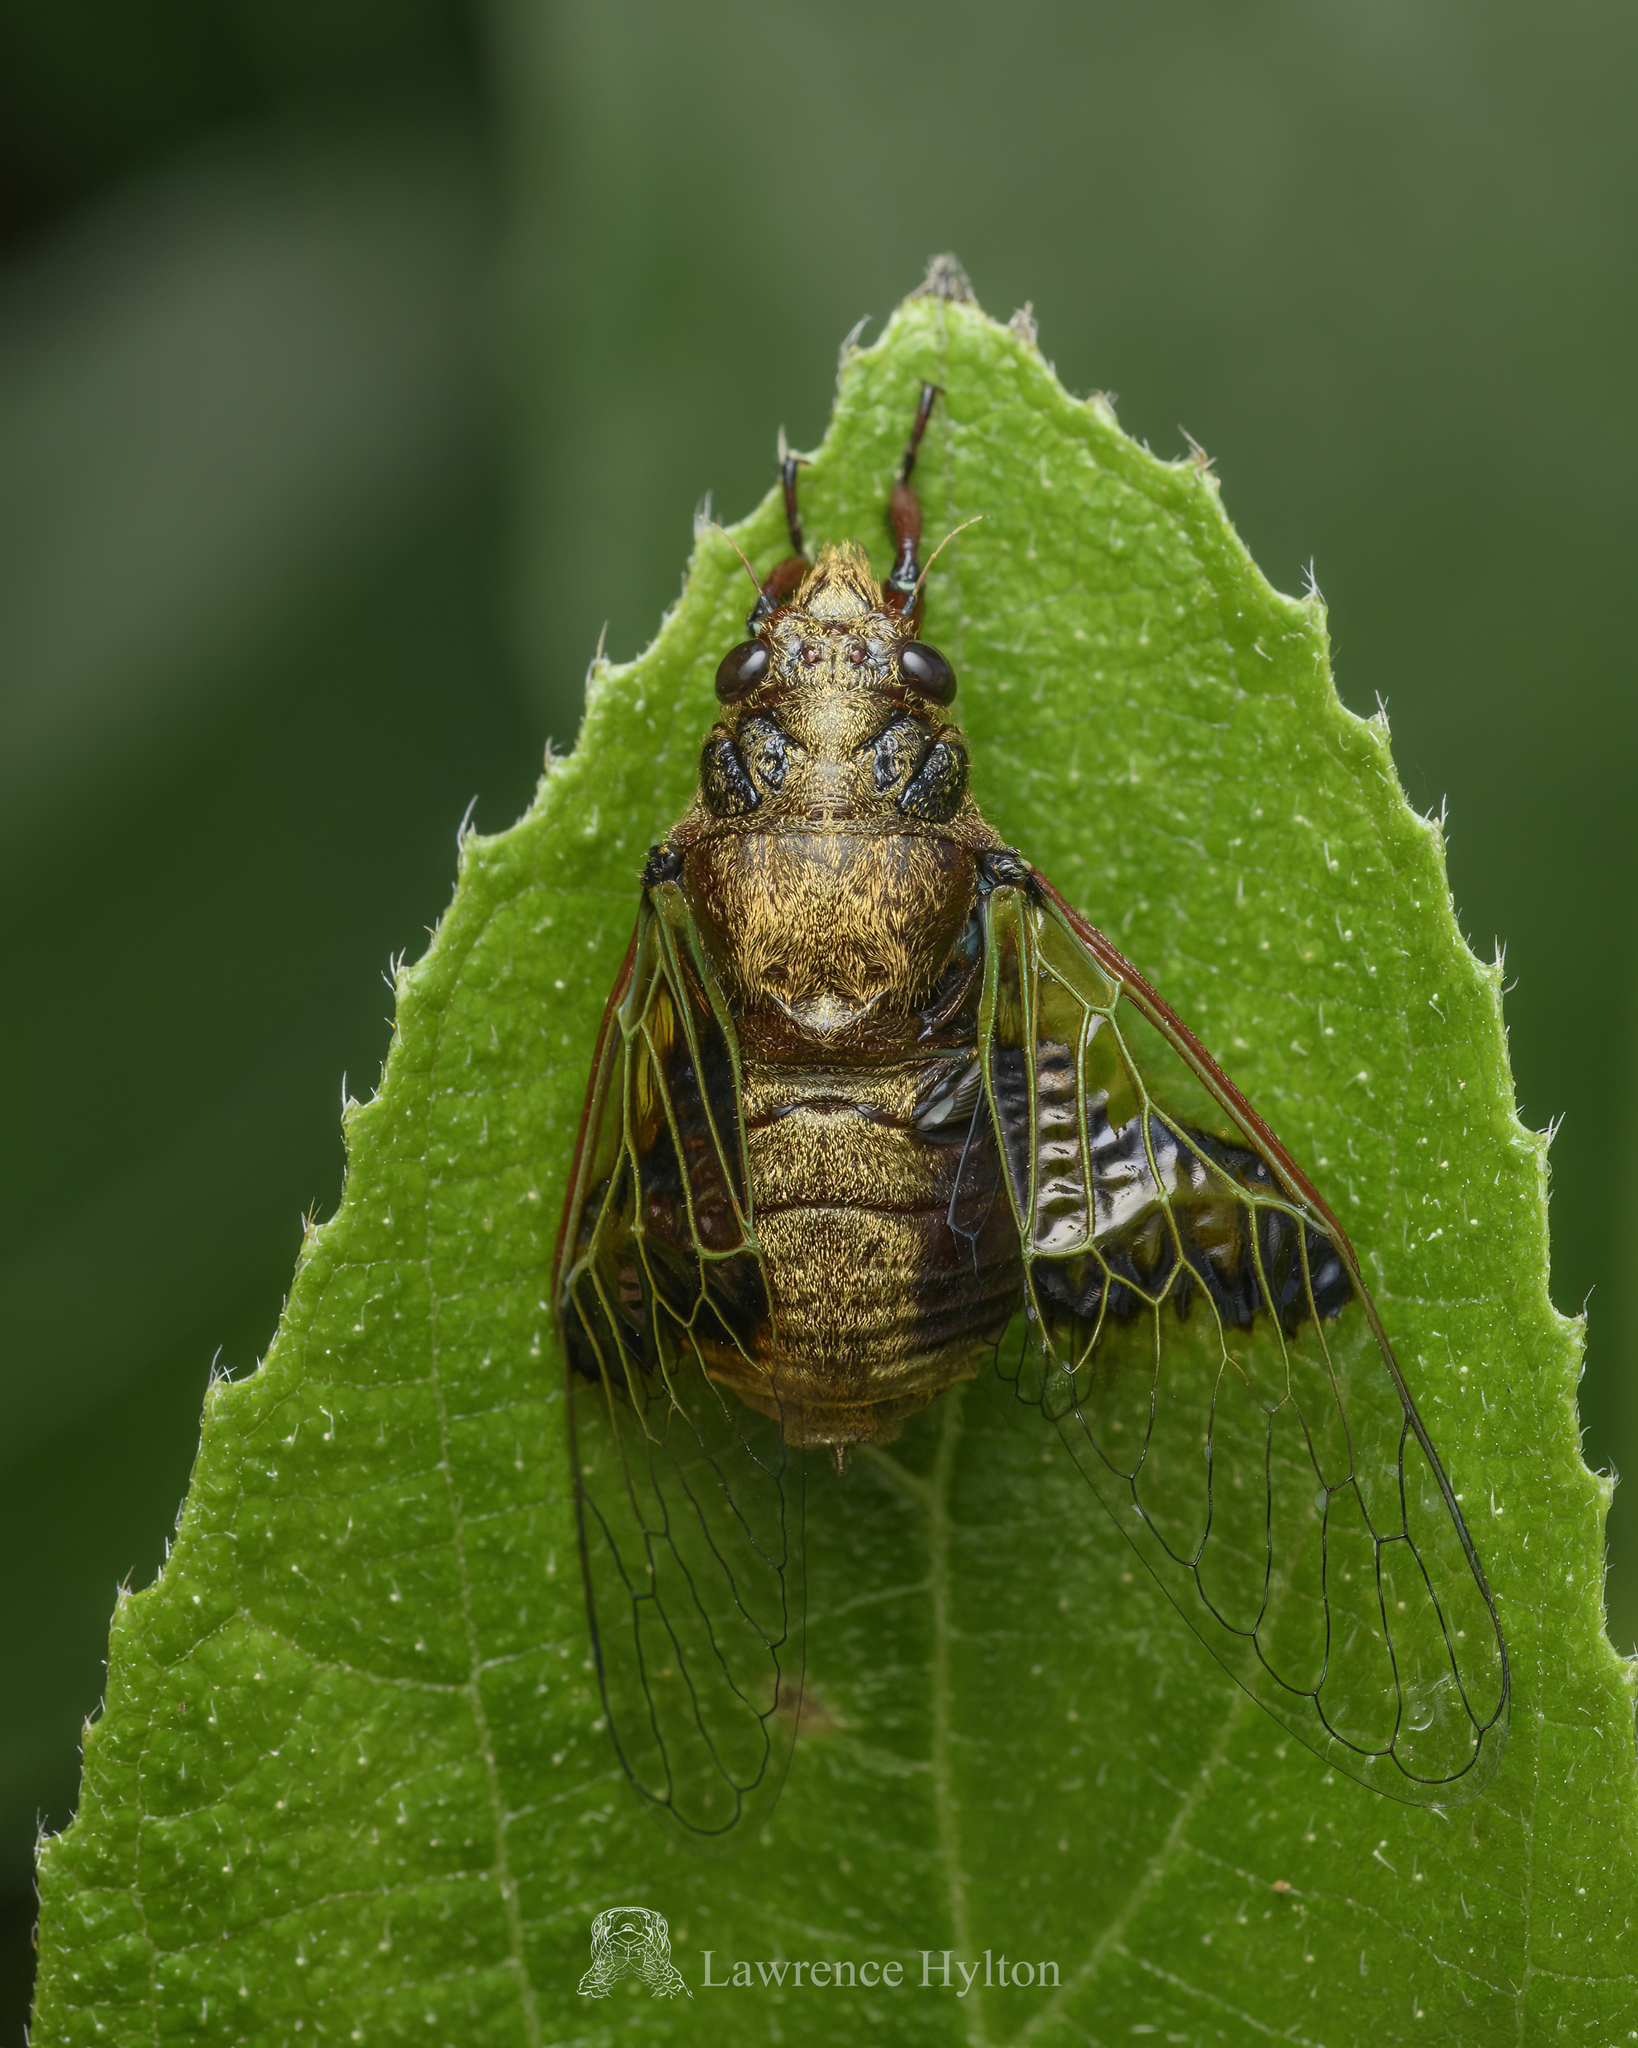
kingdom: Animalia
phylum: Arthropoda
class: Insecta
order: Hemiptera
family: Cicadidae
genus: Mogannia
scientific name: Mogannia nasalis
